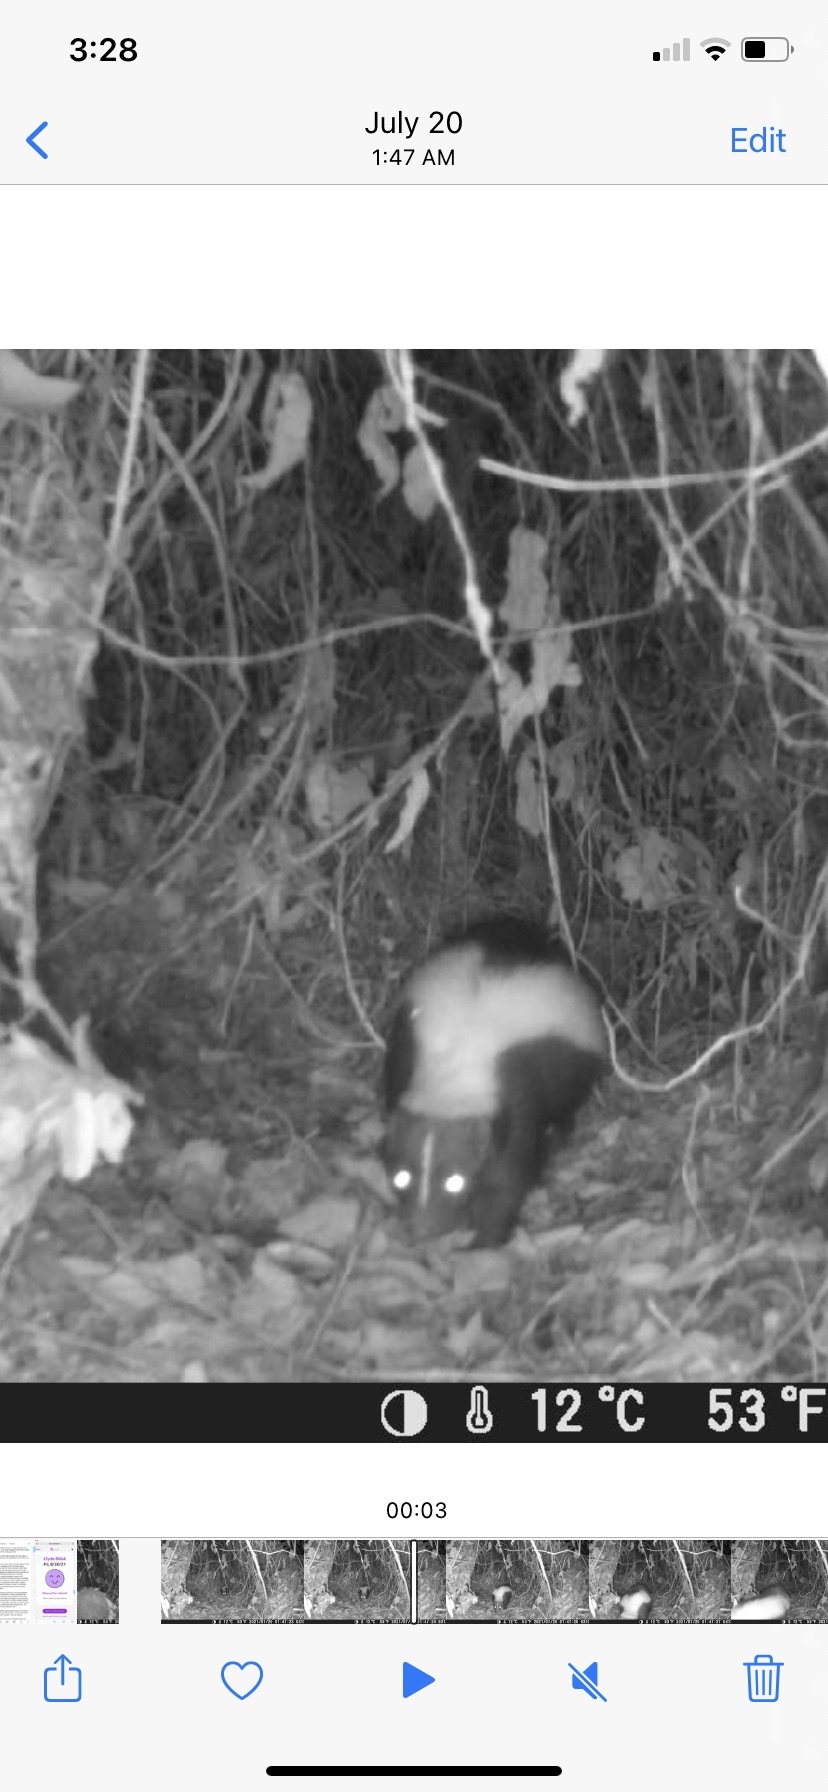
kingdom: Animalia
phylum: Chordata
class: Mammalia
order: Carnivora
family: Mephitidae
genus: Mephitis
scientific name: Mephitis mephitis
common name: Striped skunk
